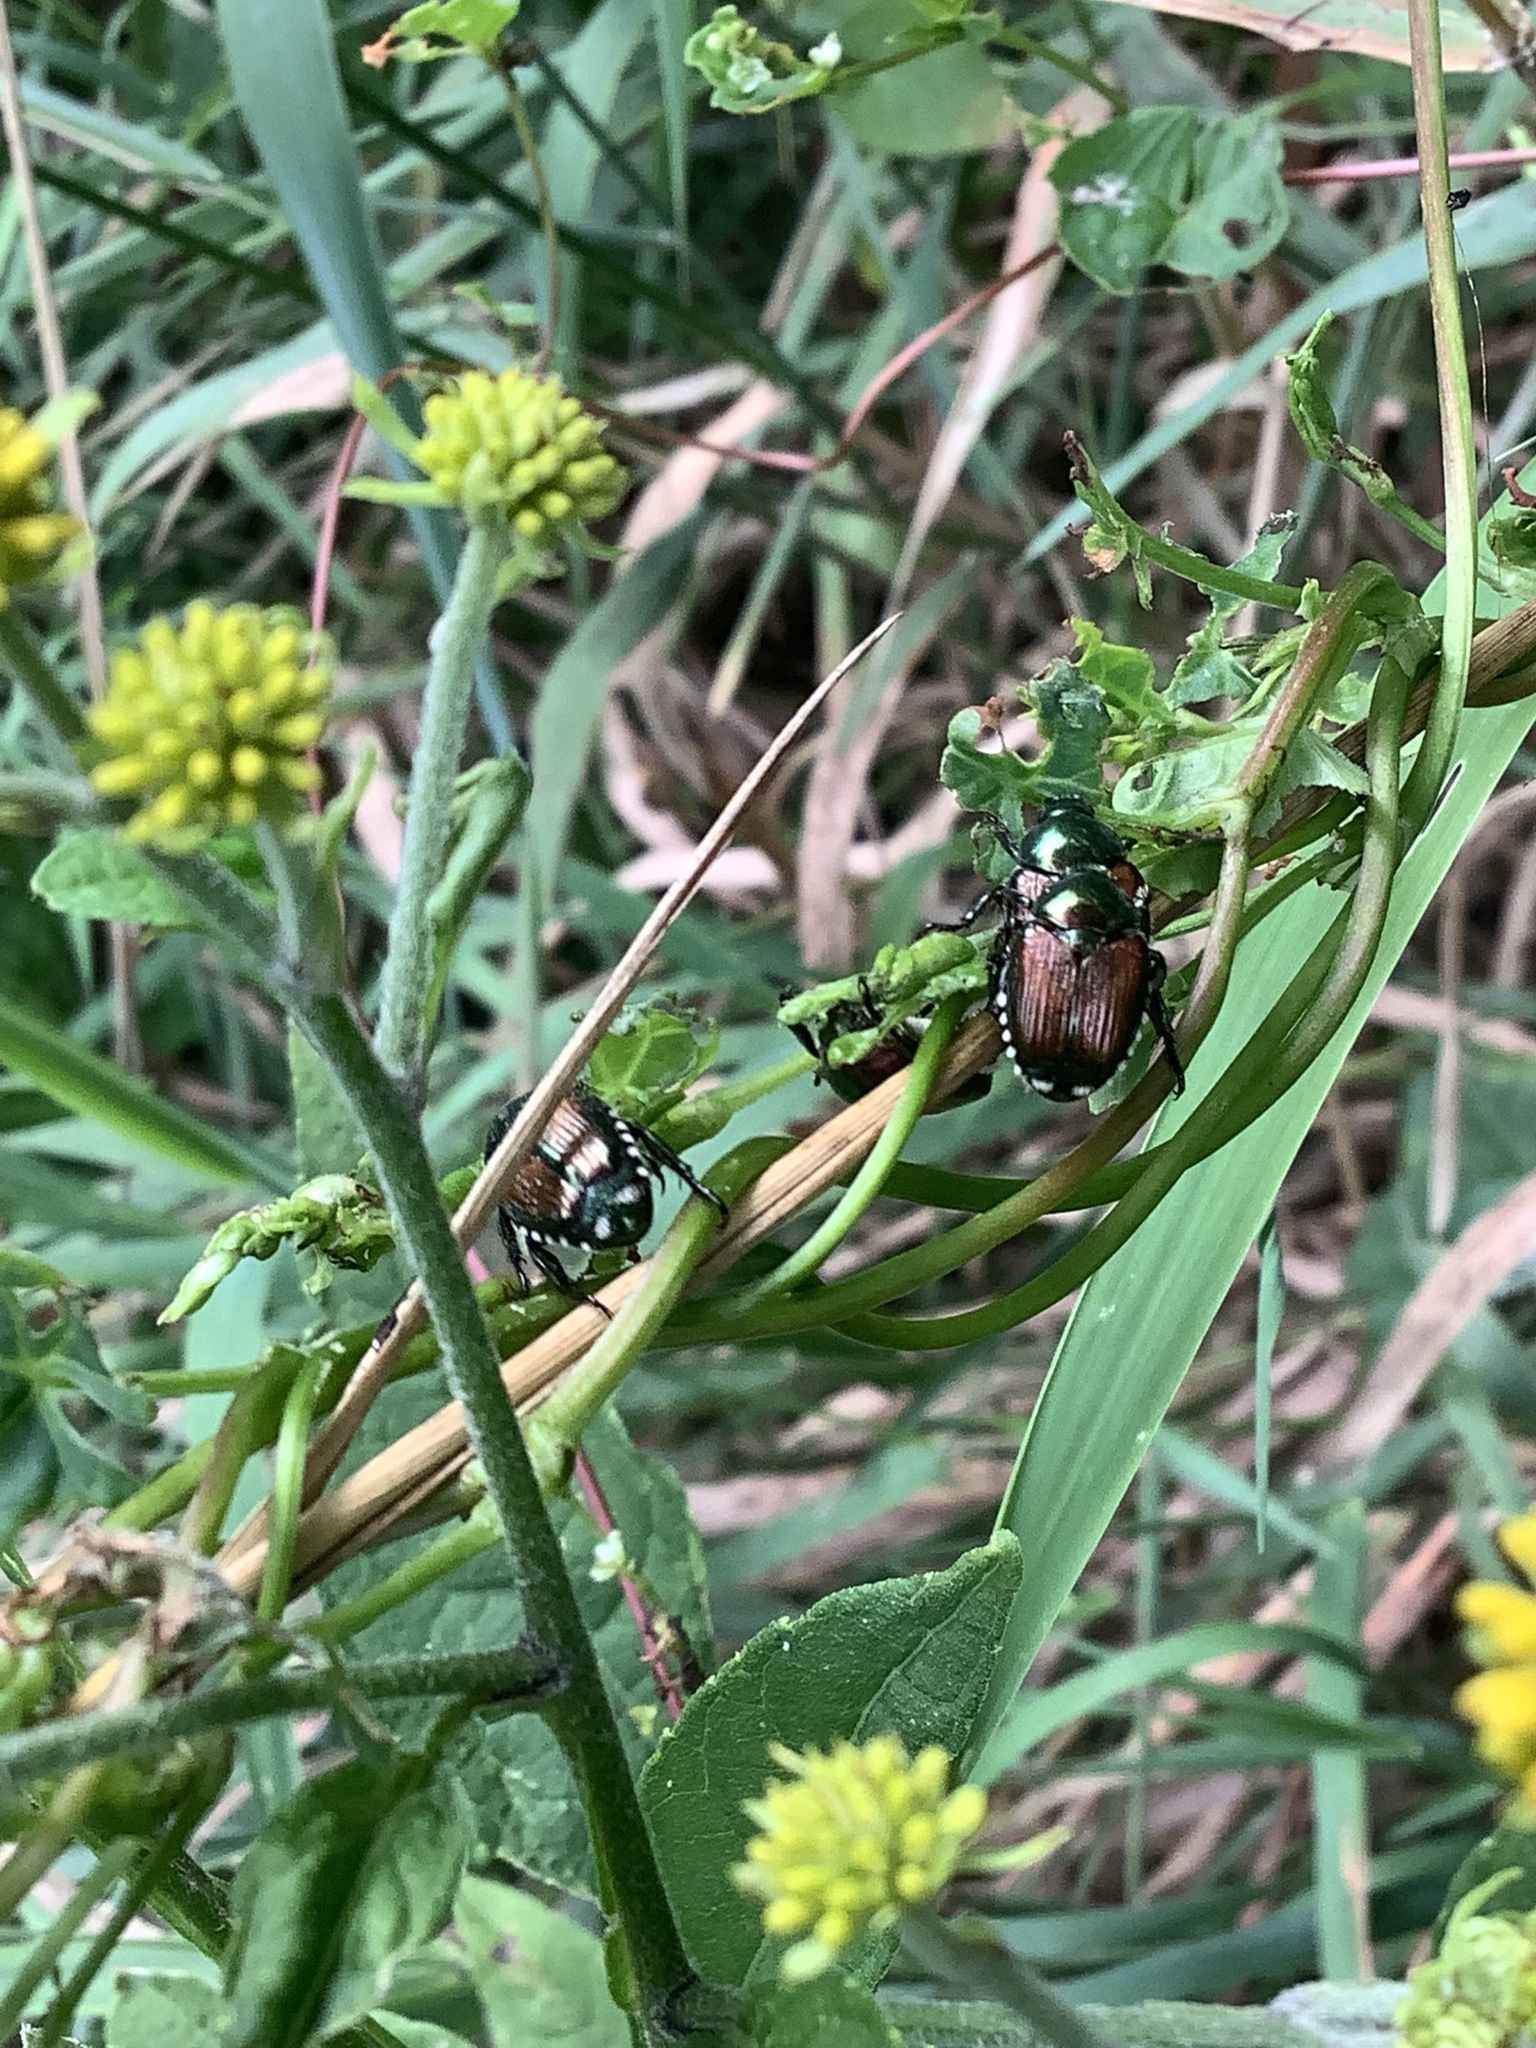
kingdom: Animalia
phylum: Arthropoda
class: Insecta
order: Coleoptera
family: Scarabaeidae
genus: Popillia
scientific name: Popillia japonica
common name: Japanese beetle
